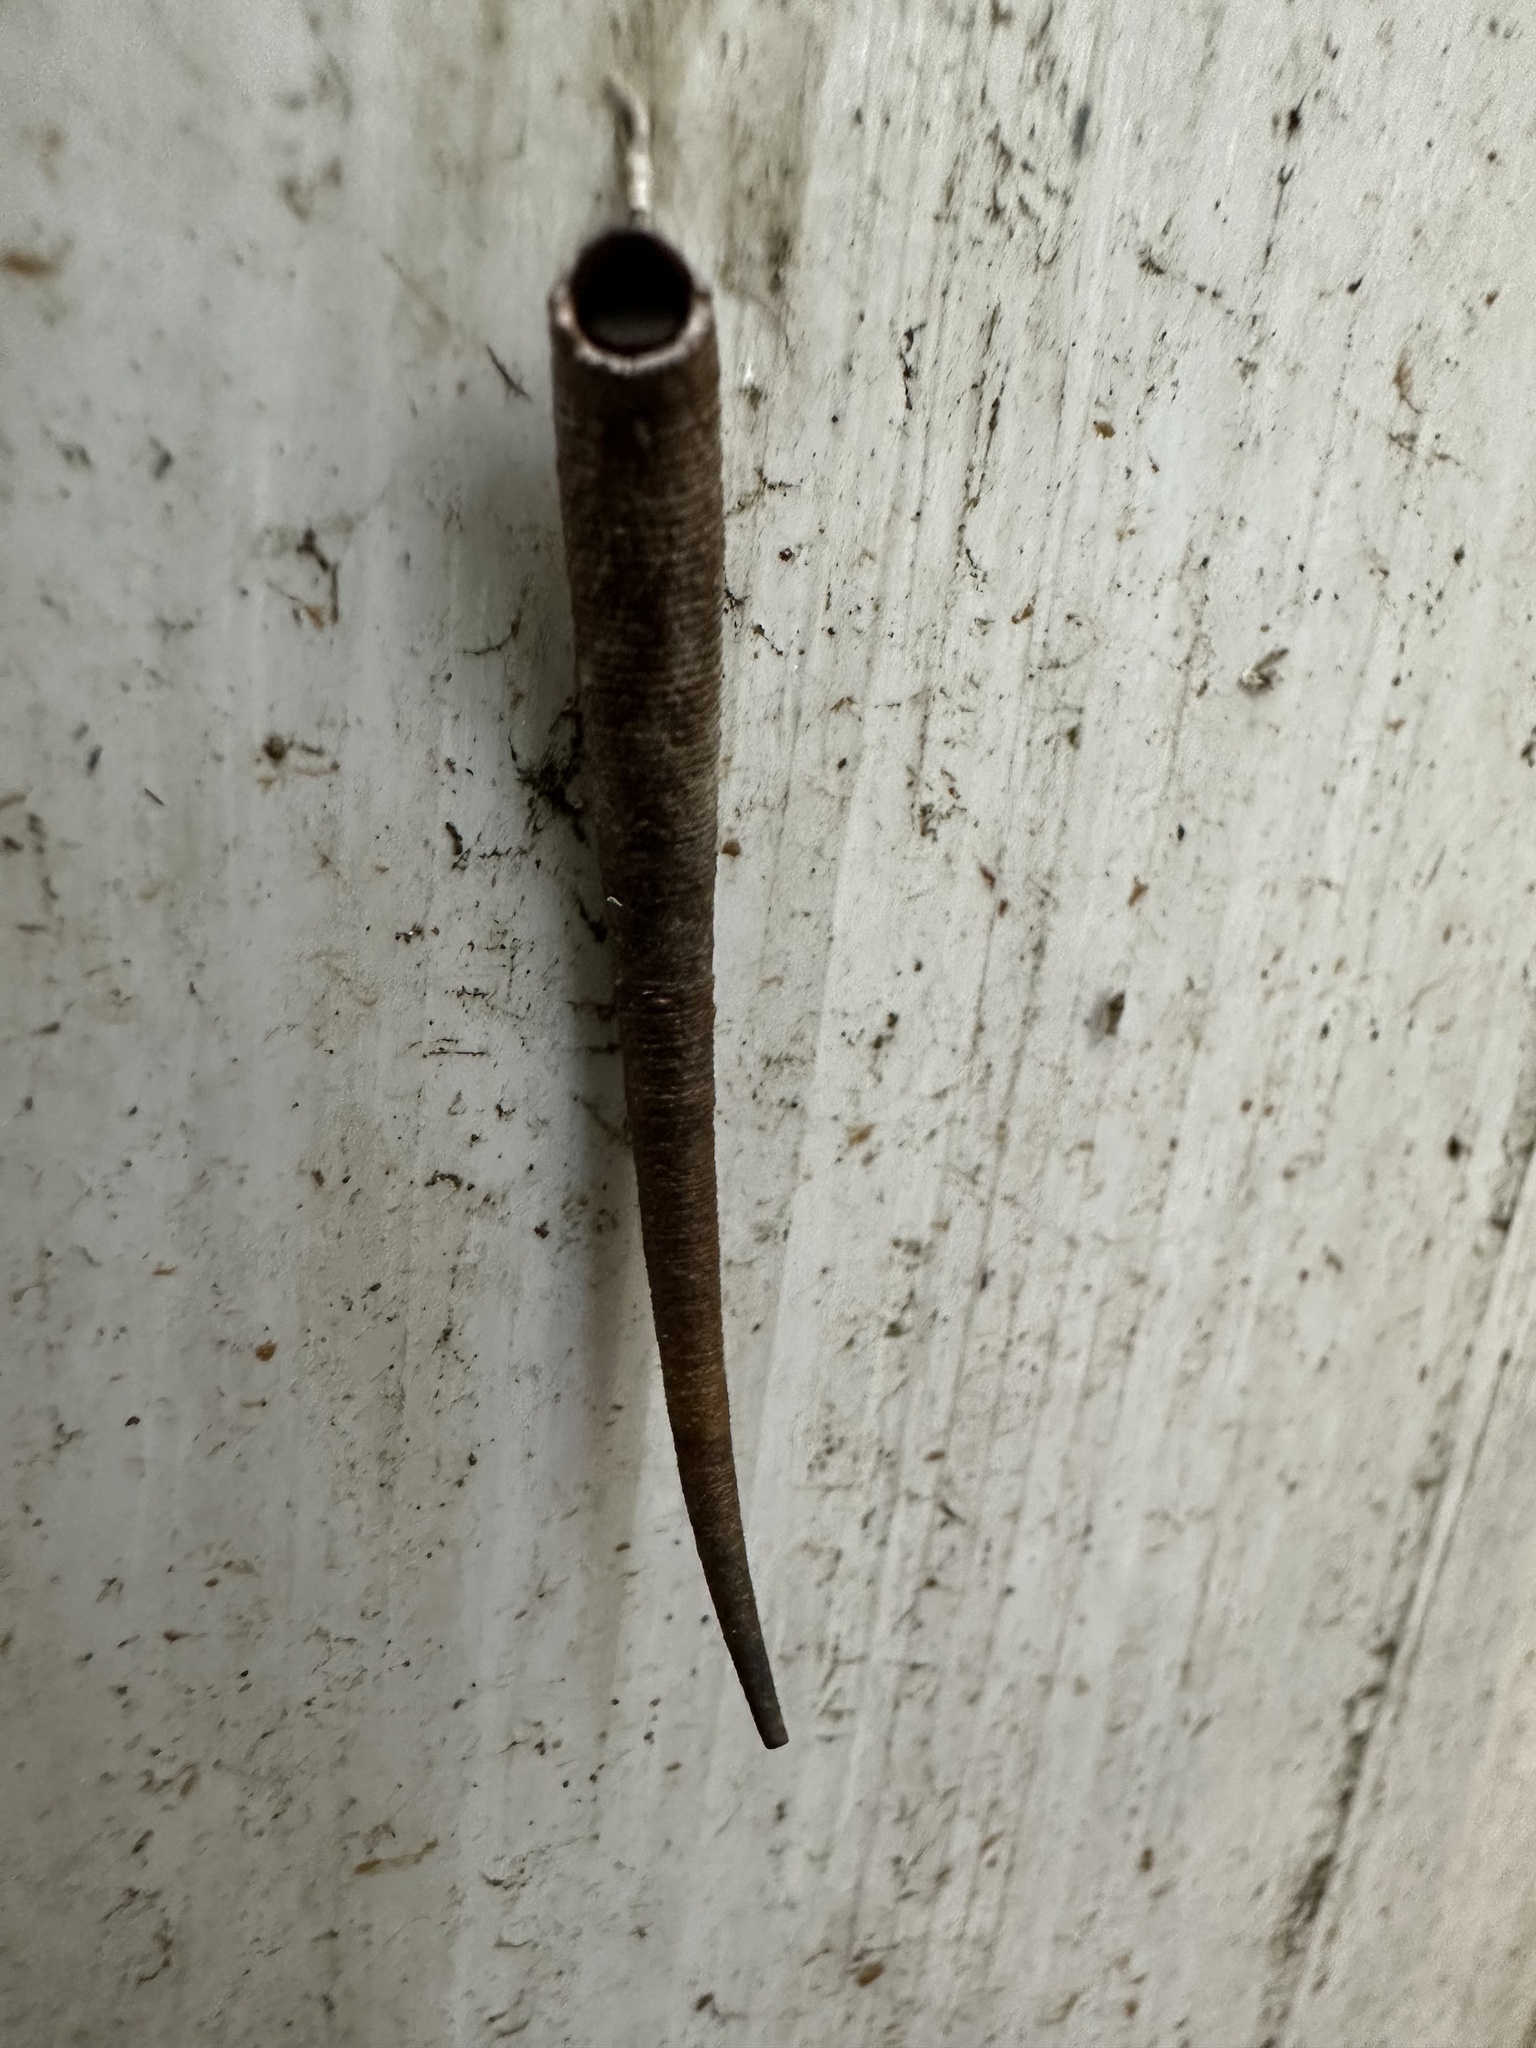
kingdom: Animalia
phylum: Arthropoda
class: Insecta
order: Lepidoptera
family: Oecophoridae
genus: Arctopoda
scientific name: Arctopoda maculosa
